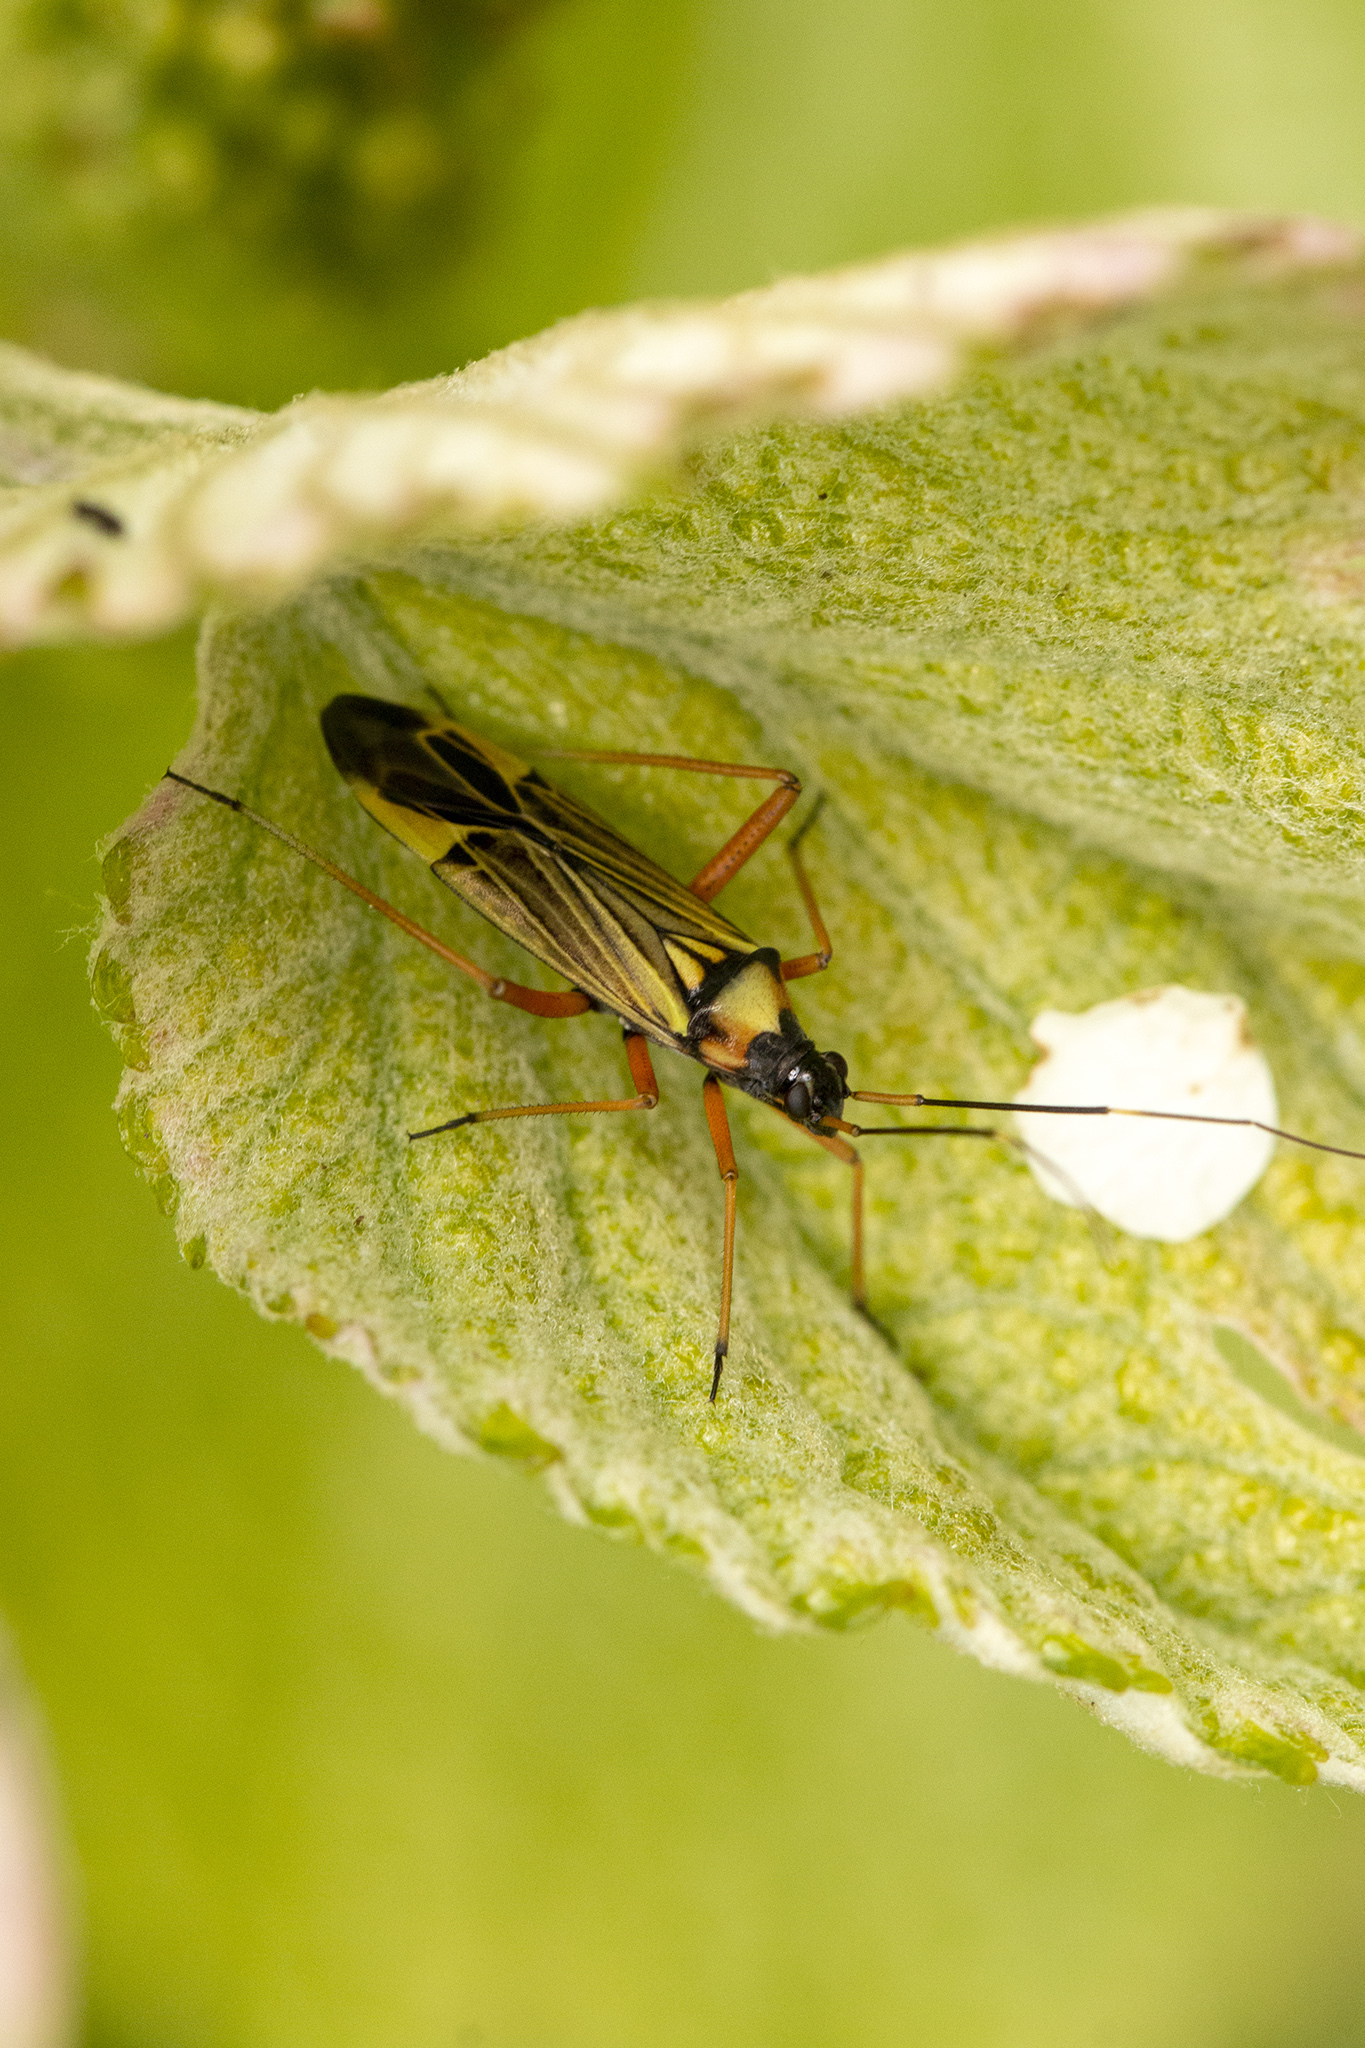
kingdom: Animalia
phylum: Arthropoda
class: Insecta
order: Hemiptera
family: Miridae
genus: Miris
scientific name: Miris striatus
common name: Fine streaked bugkin
